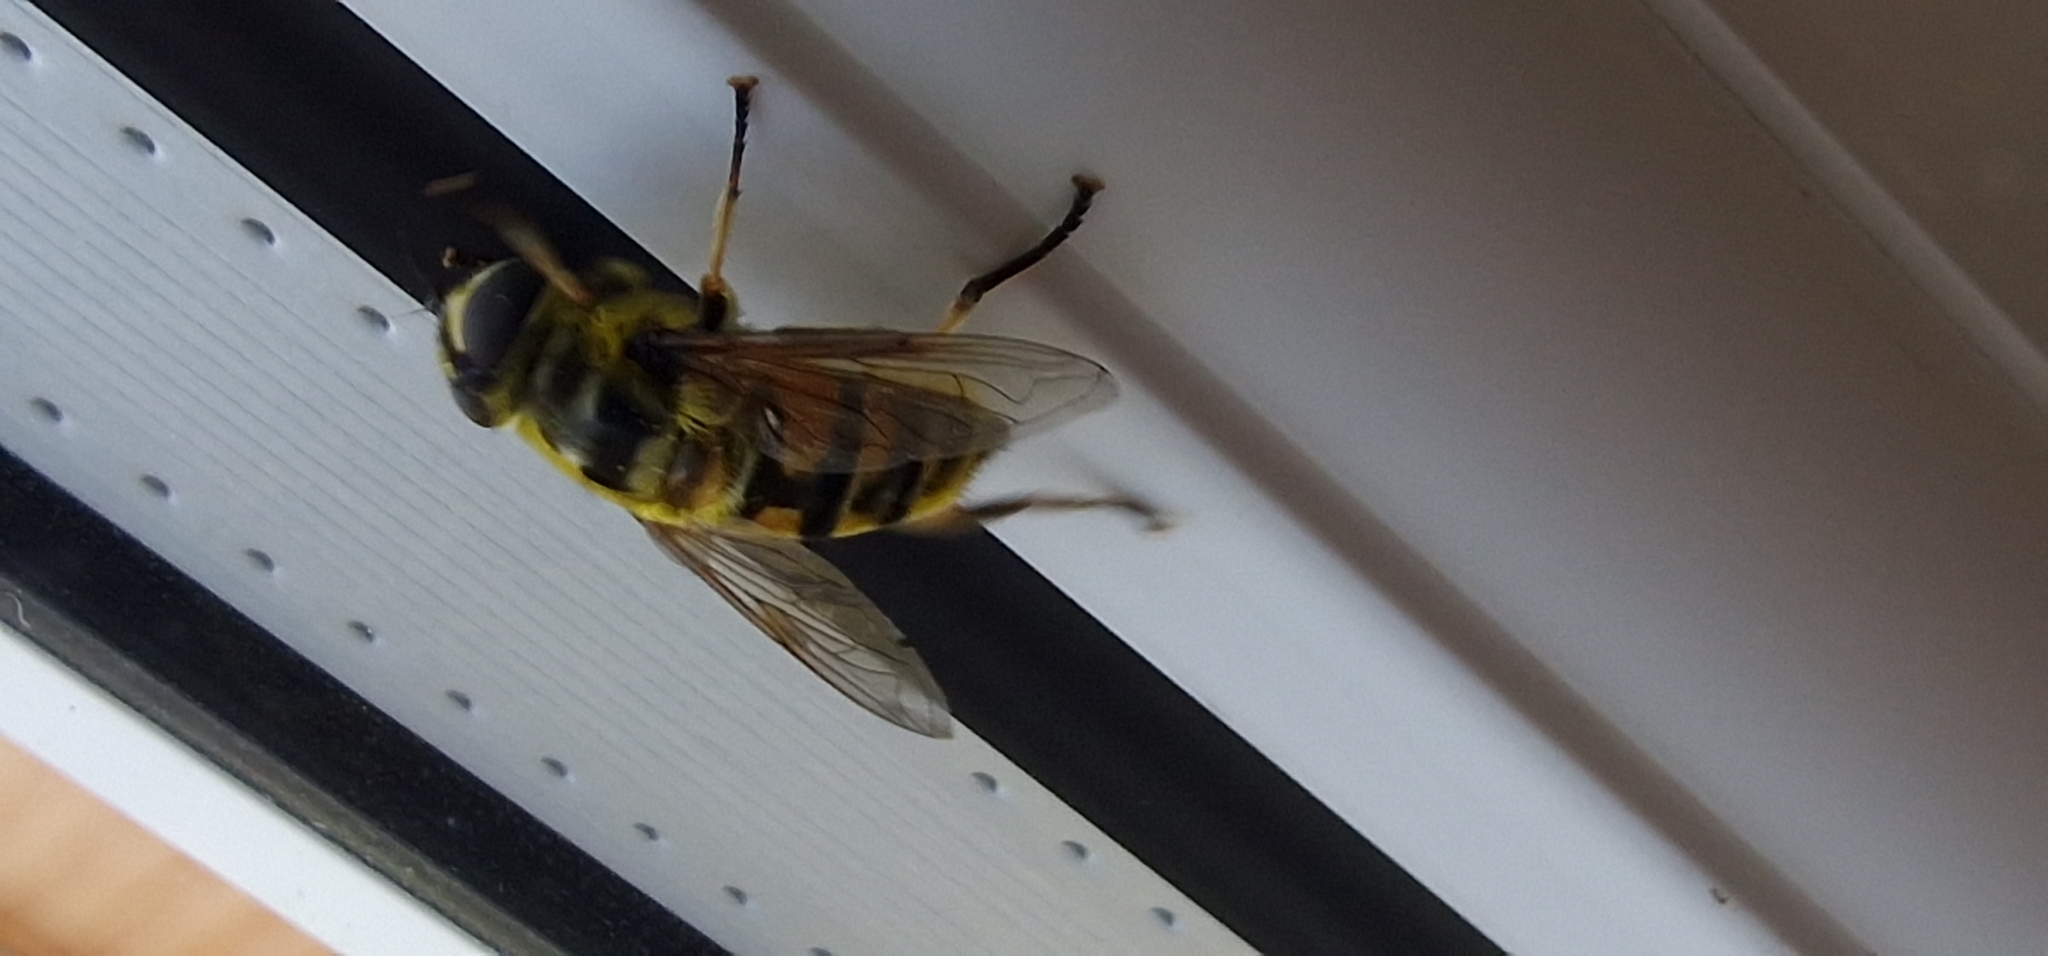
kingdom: Animalia
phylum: Arthropoda
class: Insecta
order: Diptera
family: Syrphidae
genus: Myathropa
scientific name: Myathropa florea
